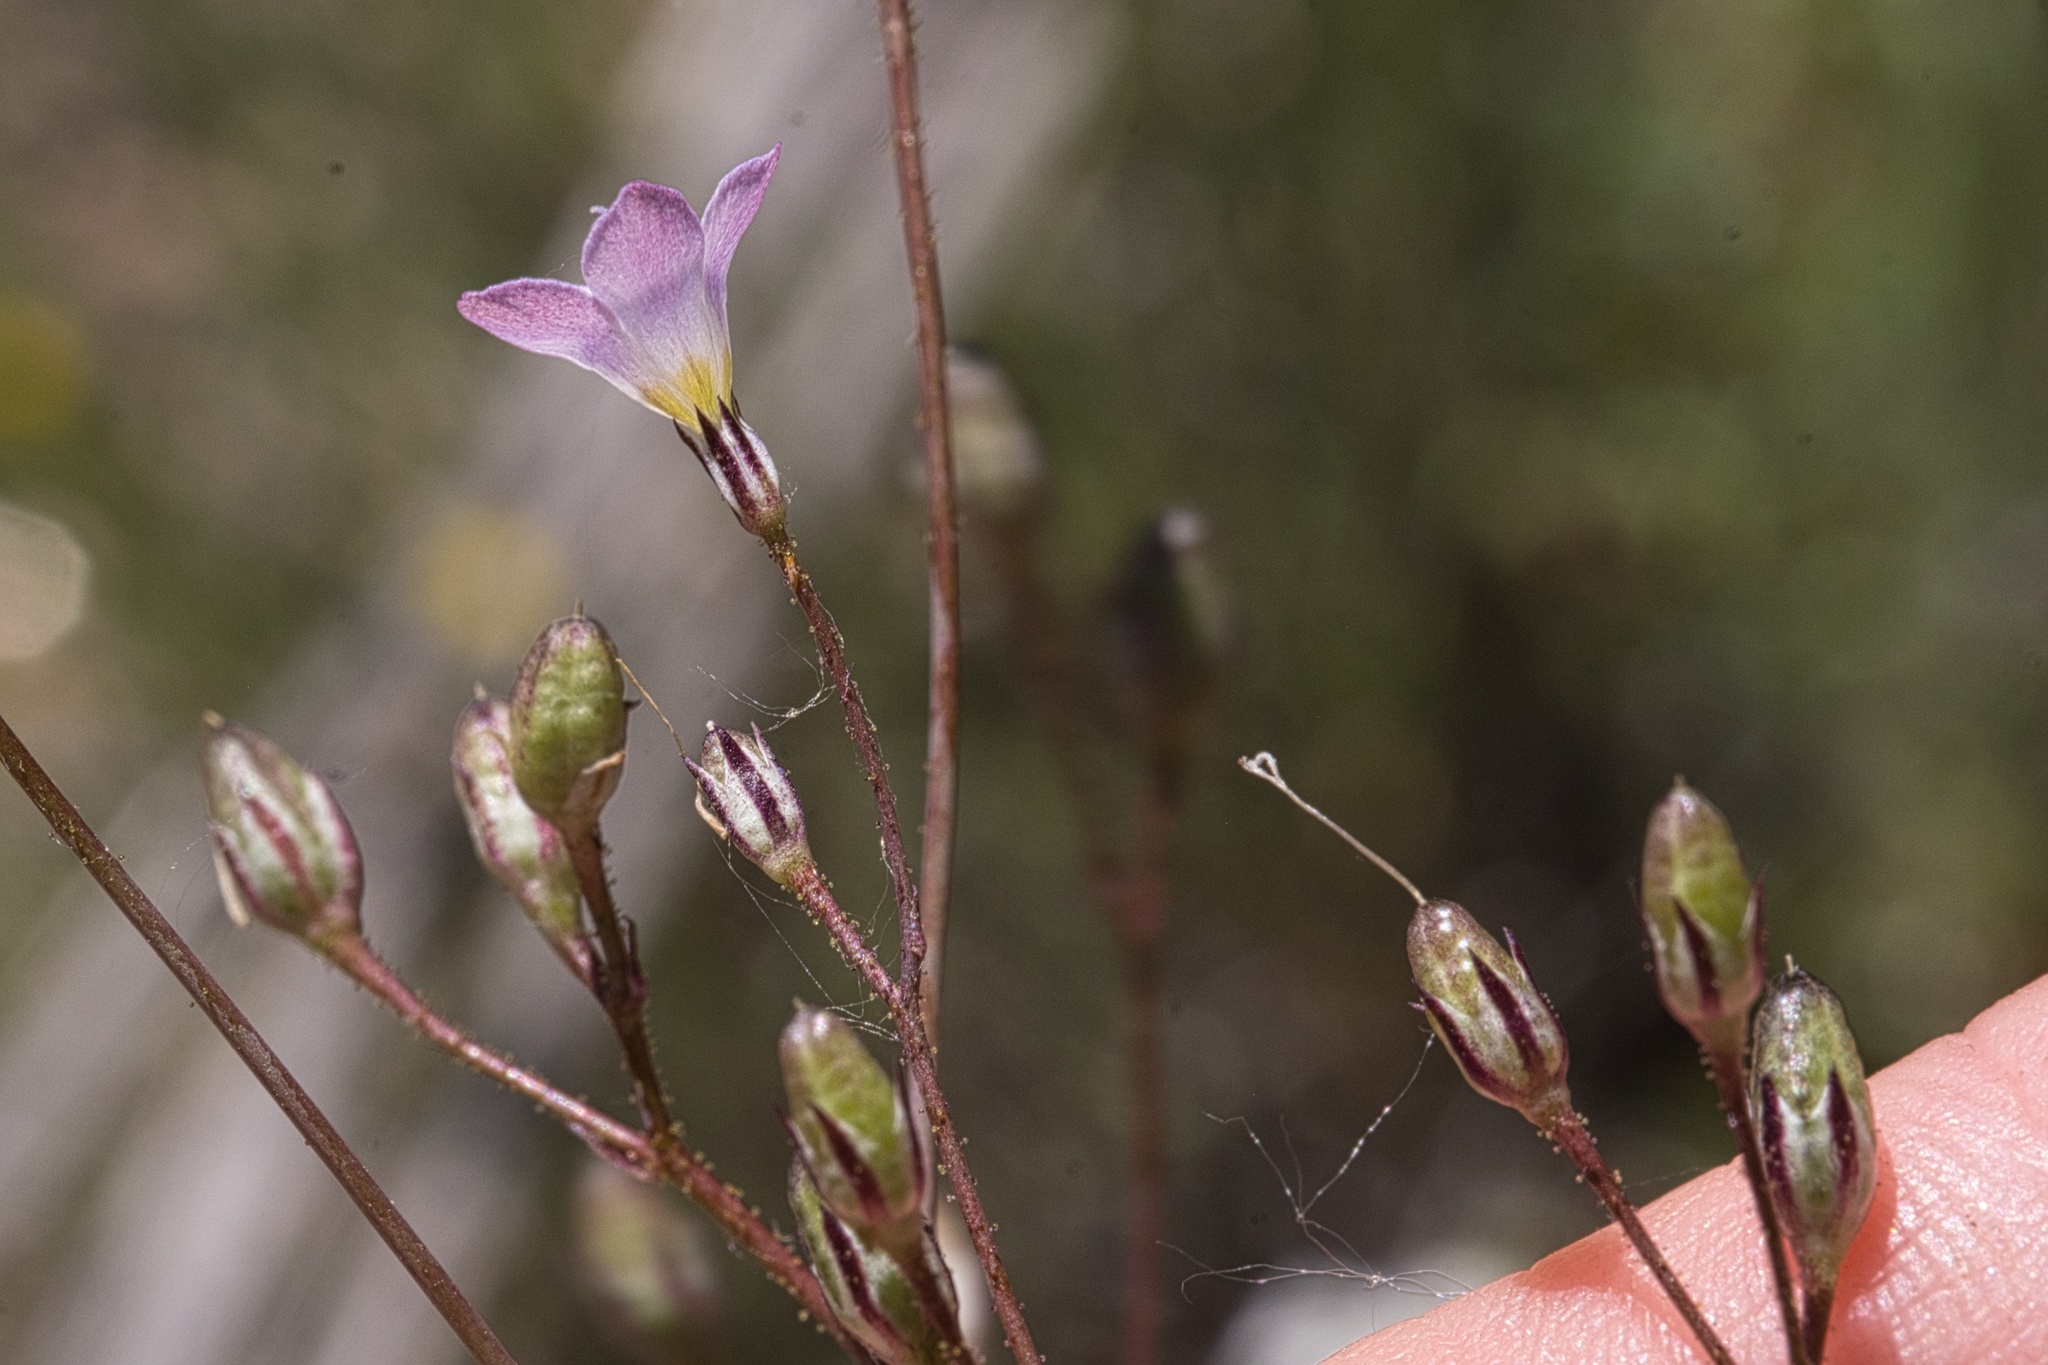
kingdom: Plantae
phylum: Tracheophyta
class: Magnoliopsida
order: Ericales
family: Polemoniaceae
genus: Saltugilia
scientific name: Saltugilia australis
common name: Southern gilia
